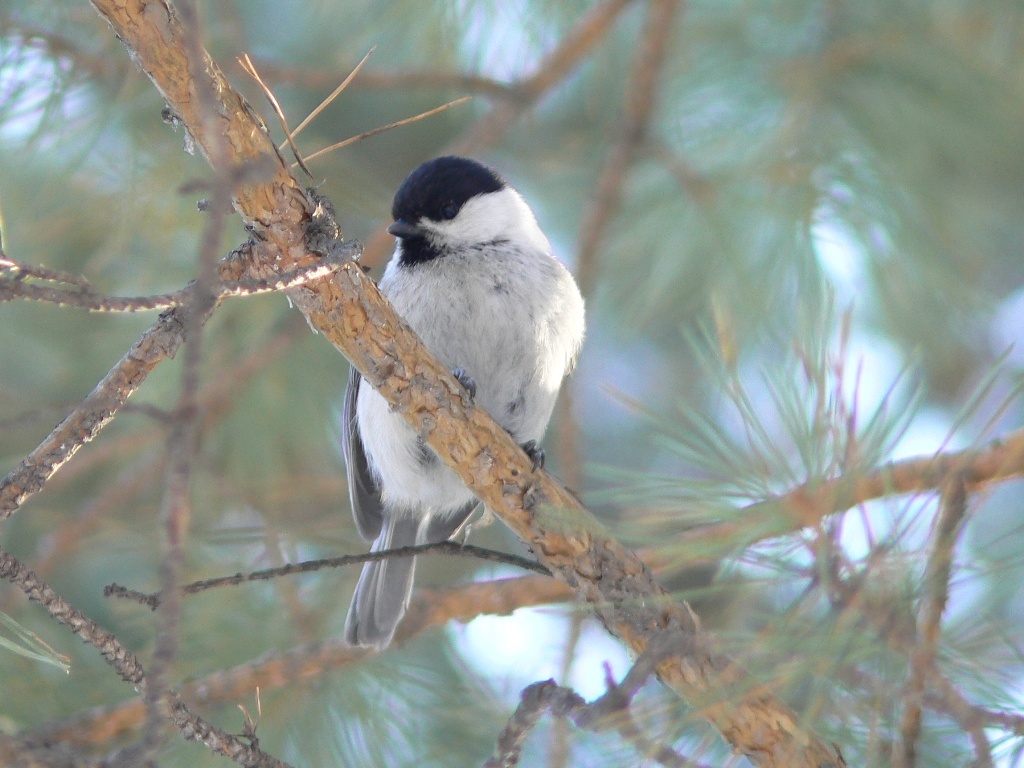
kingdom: Animalia
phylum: Chordata
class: Aves
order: Passeriformes
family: Paridae
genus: Poecile
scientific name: Poecile montanus
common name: Willow tit
